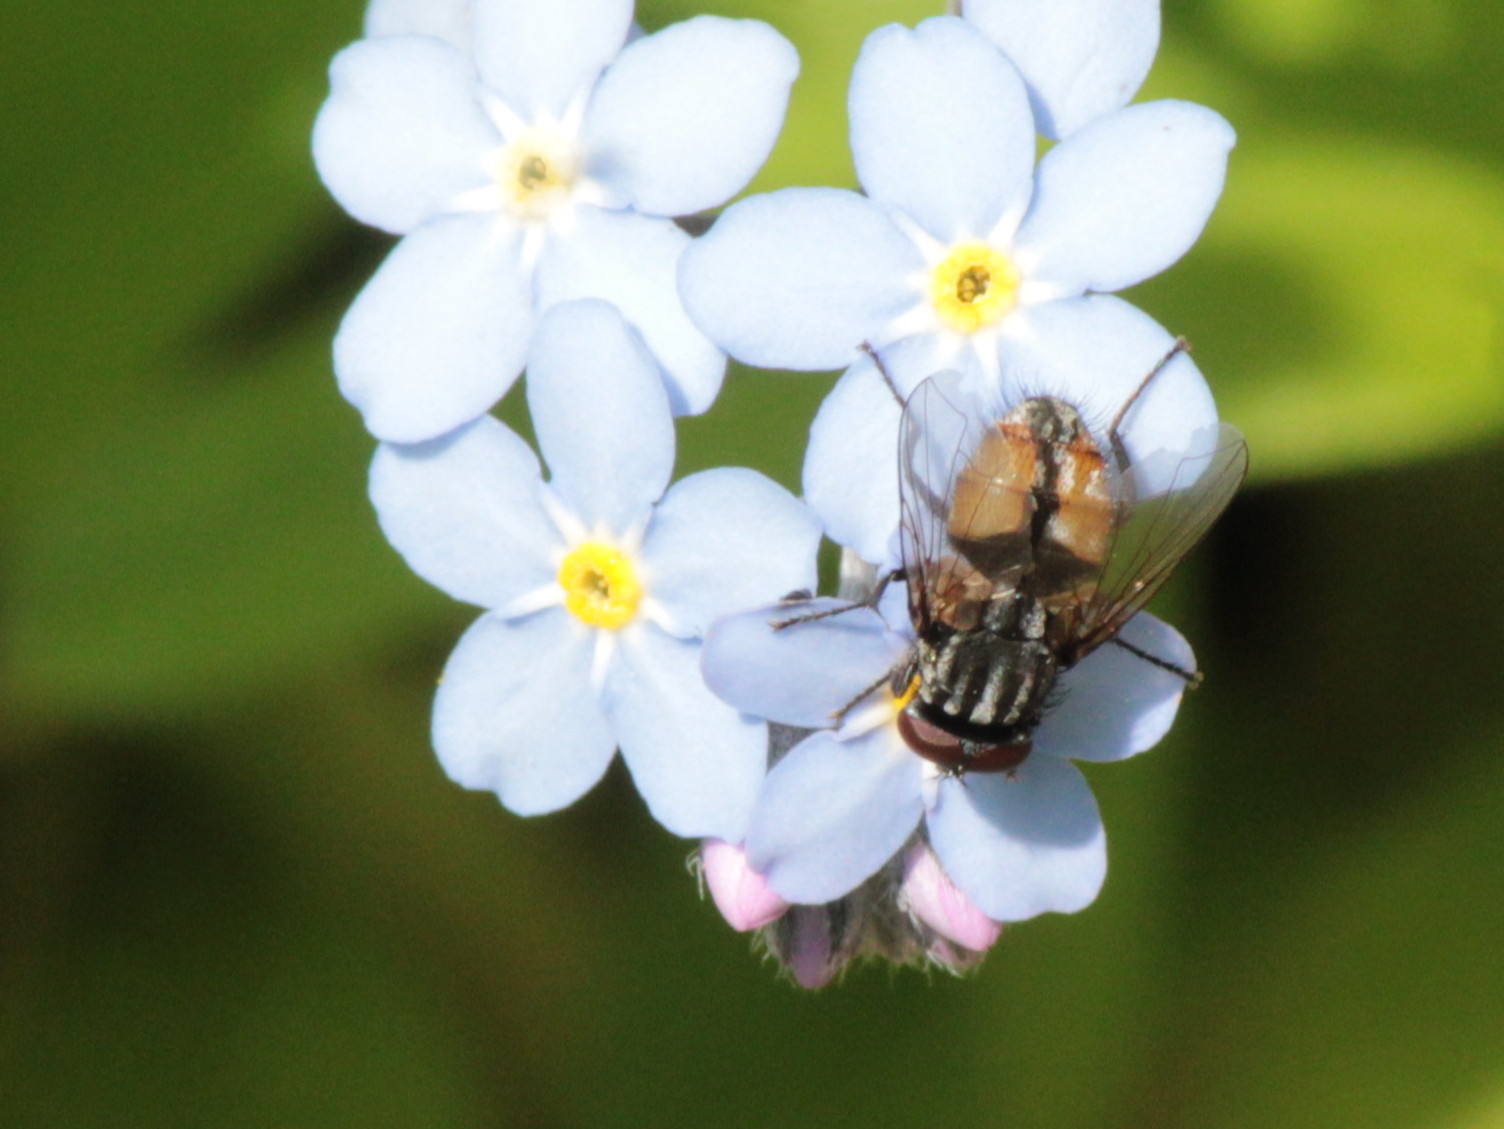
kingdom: Animalia
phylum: Arthropoda
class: Insecta
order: Diptera
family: Muscidae
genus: Musca
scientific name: Musca autumnalis
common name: Face fly
